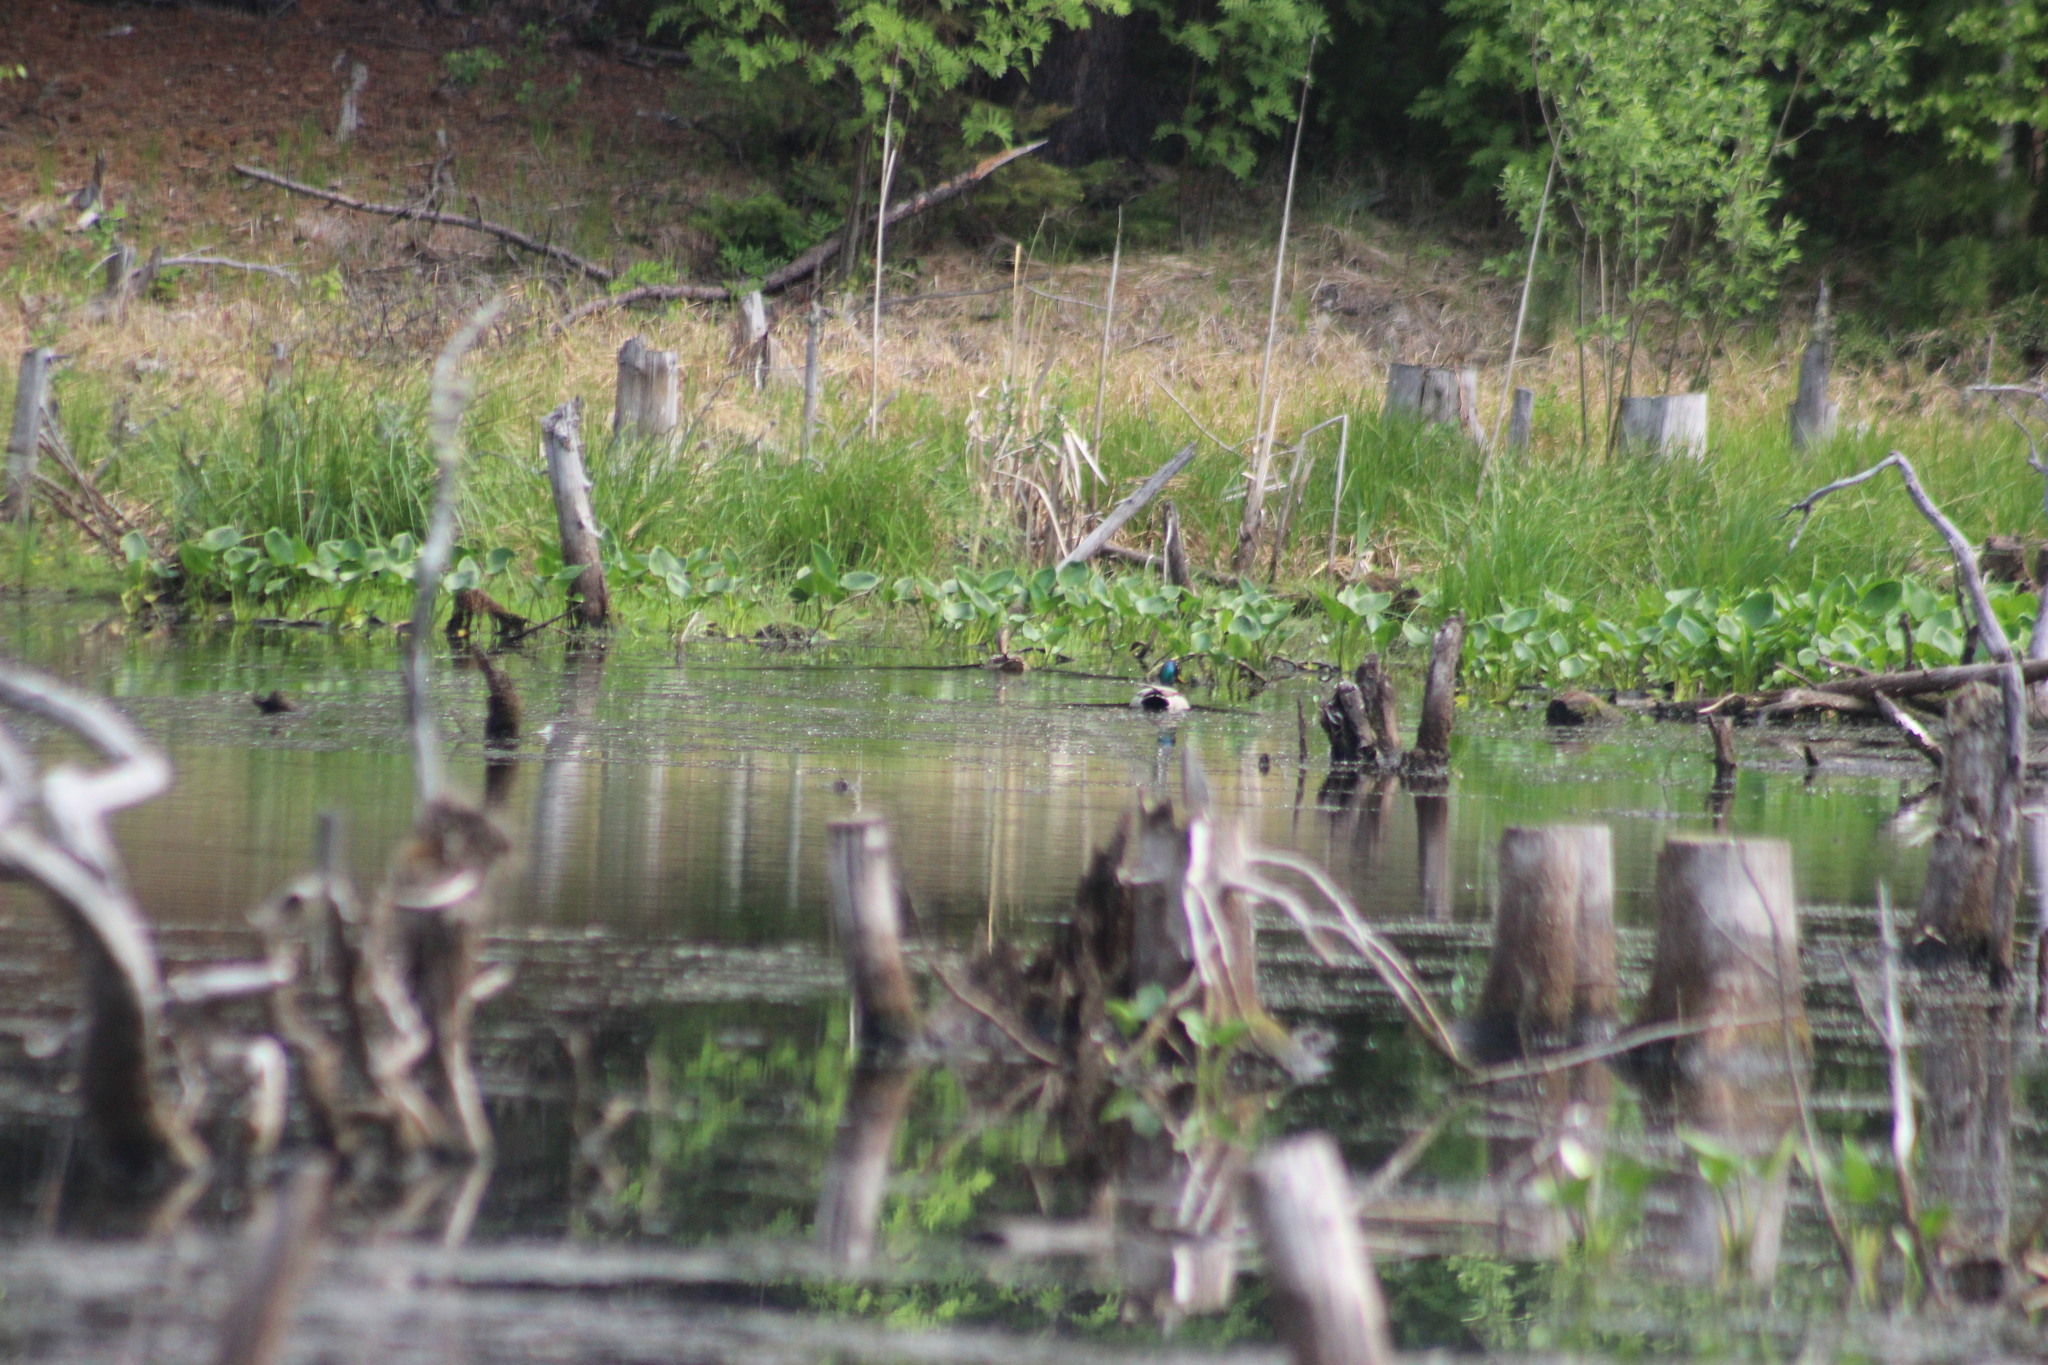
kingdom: Animalia
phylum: Chordata
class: Aves
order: Anseriformes
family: Anatidae
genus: Anas
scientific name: Anas platyrhynchos
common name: Mallard
